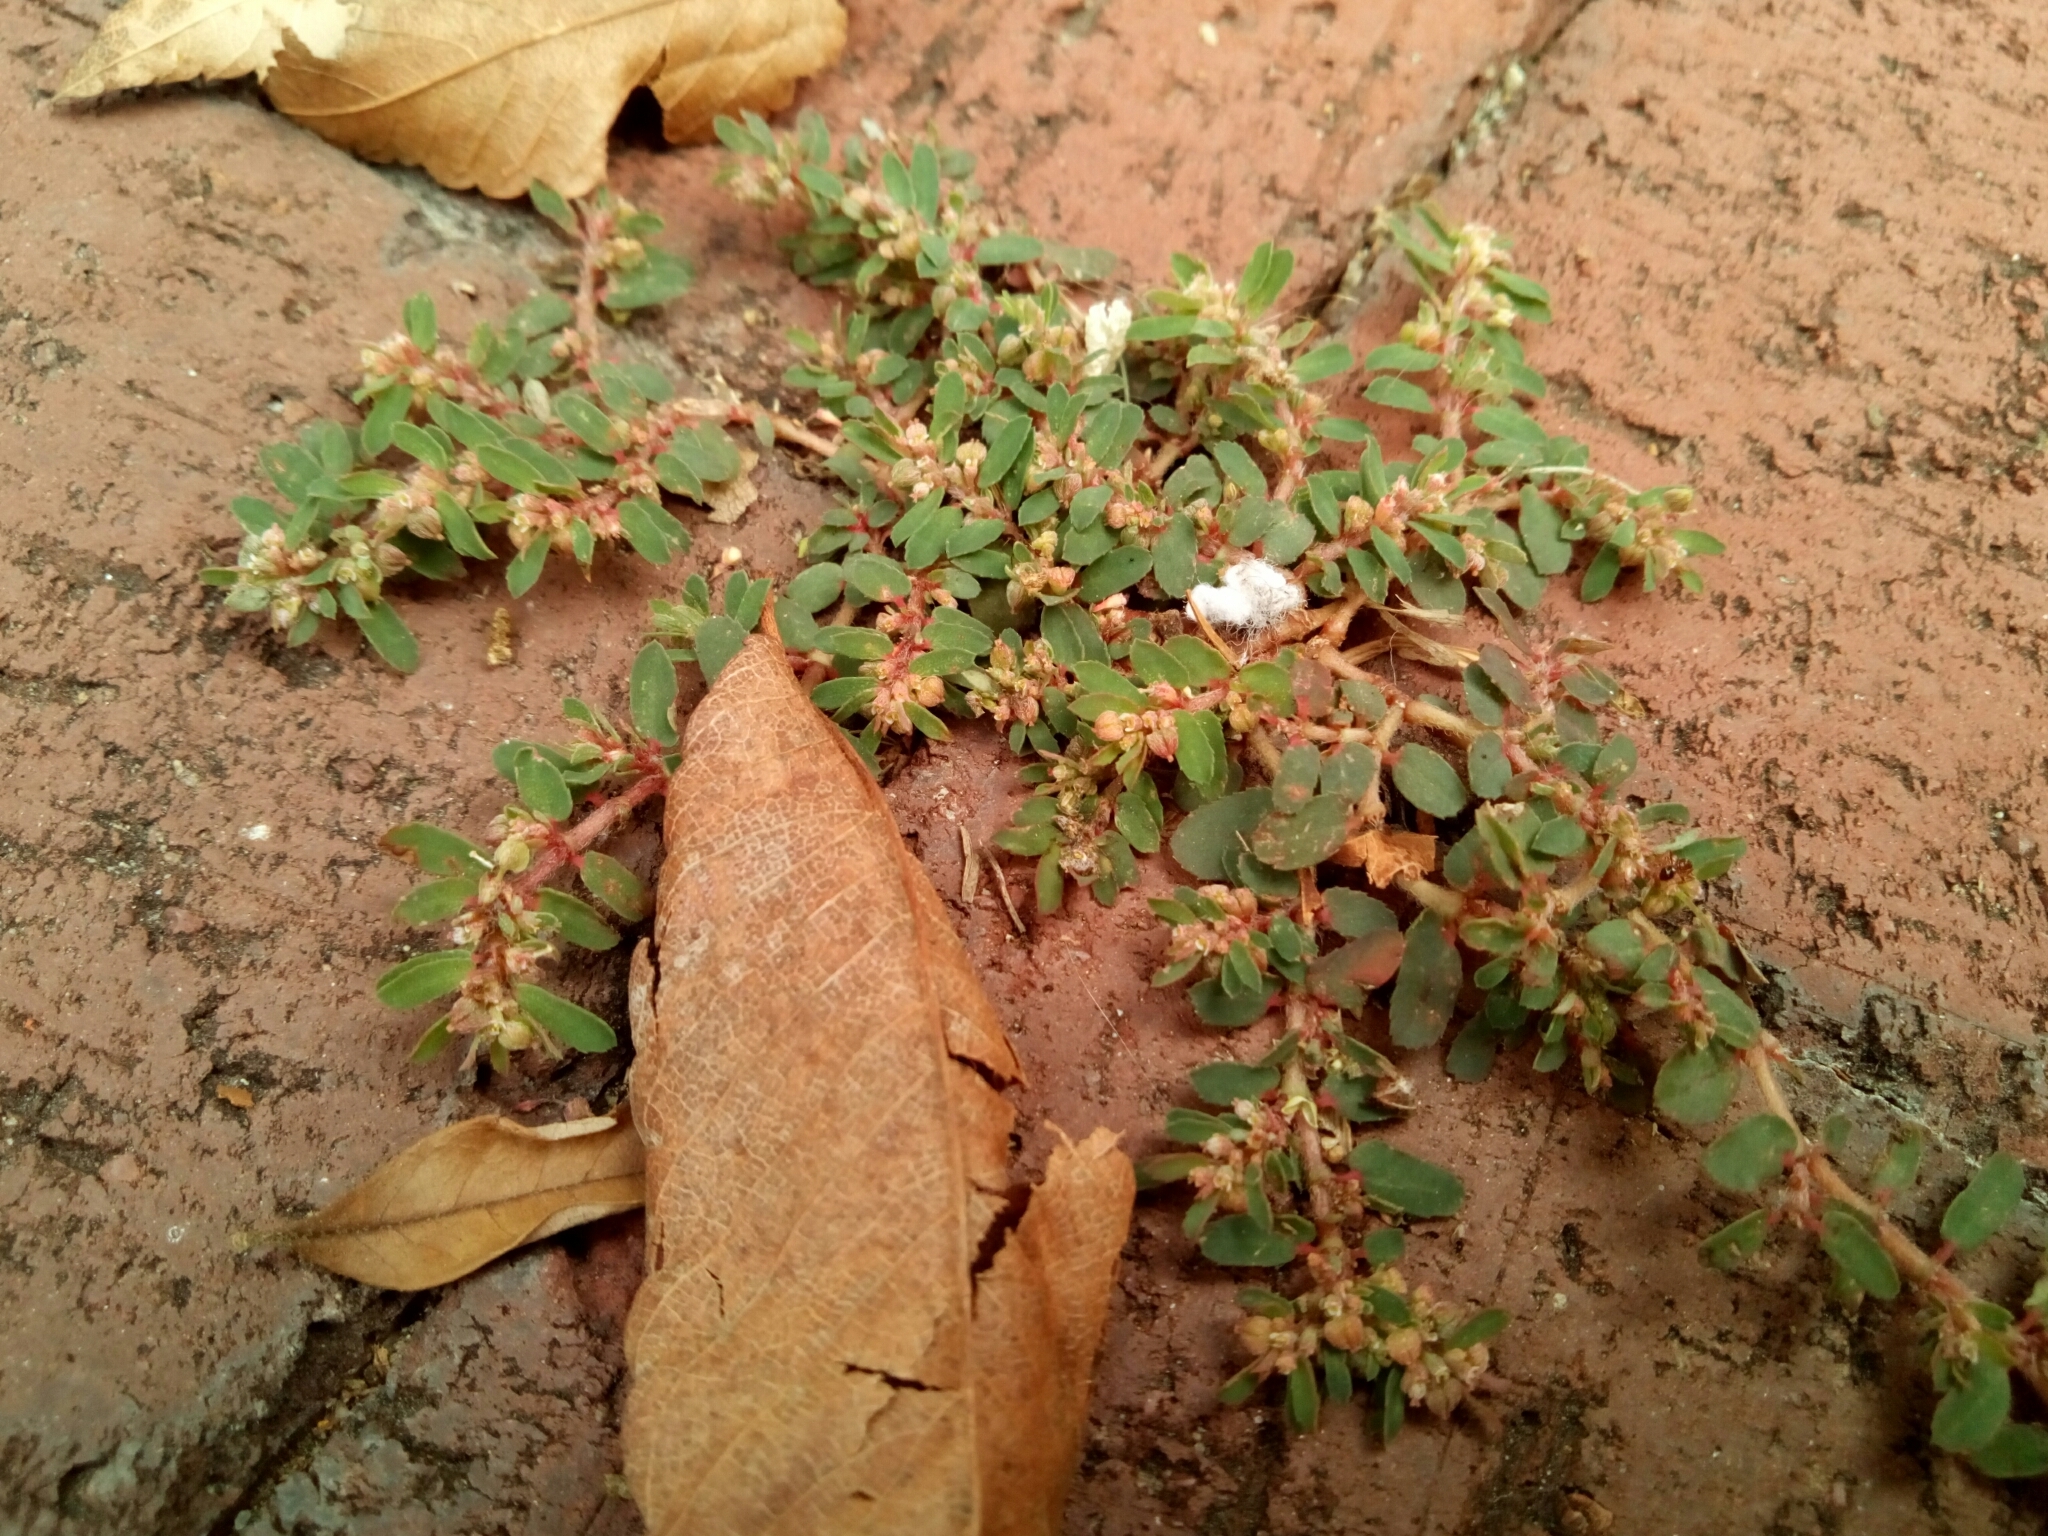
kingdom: Plantae
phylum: Tracheophyta
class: Magnoliopsida
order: Malpighiales
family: Euphorbiaceae
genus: Euphorbia
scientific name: Euphorbia maculata
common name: Spotted spurge
